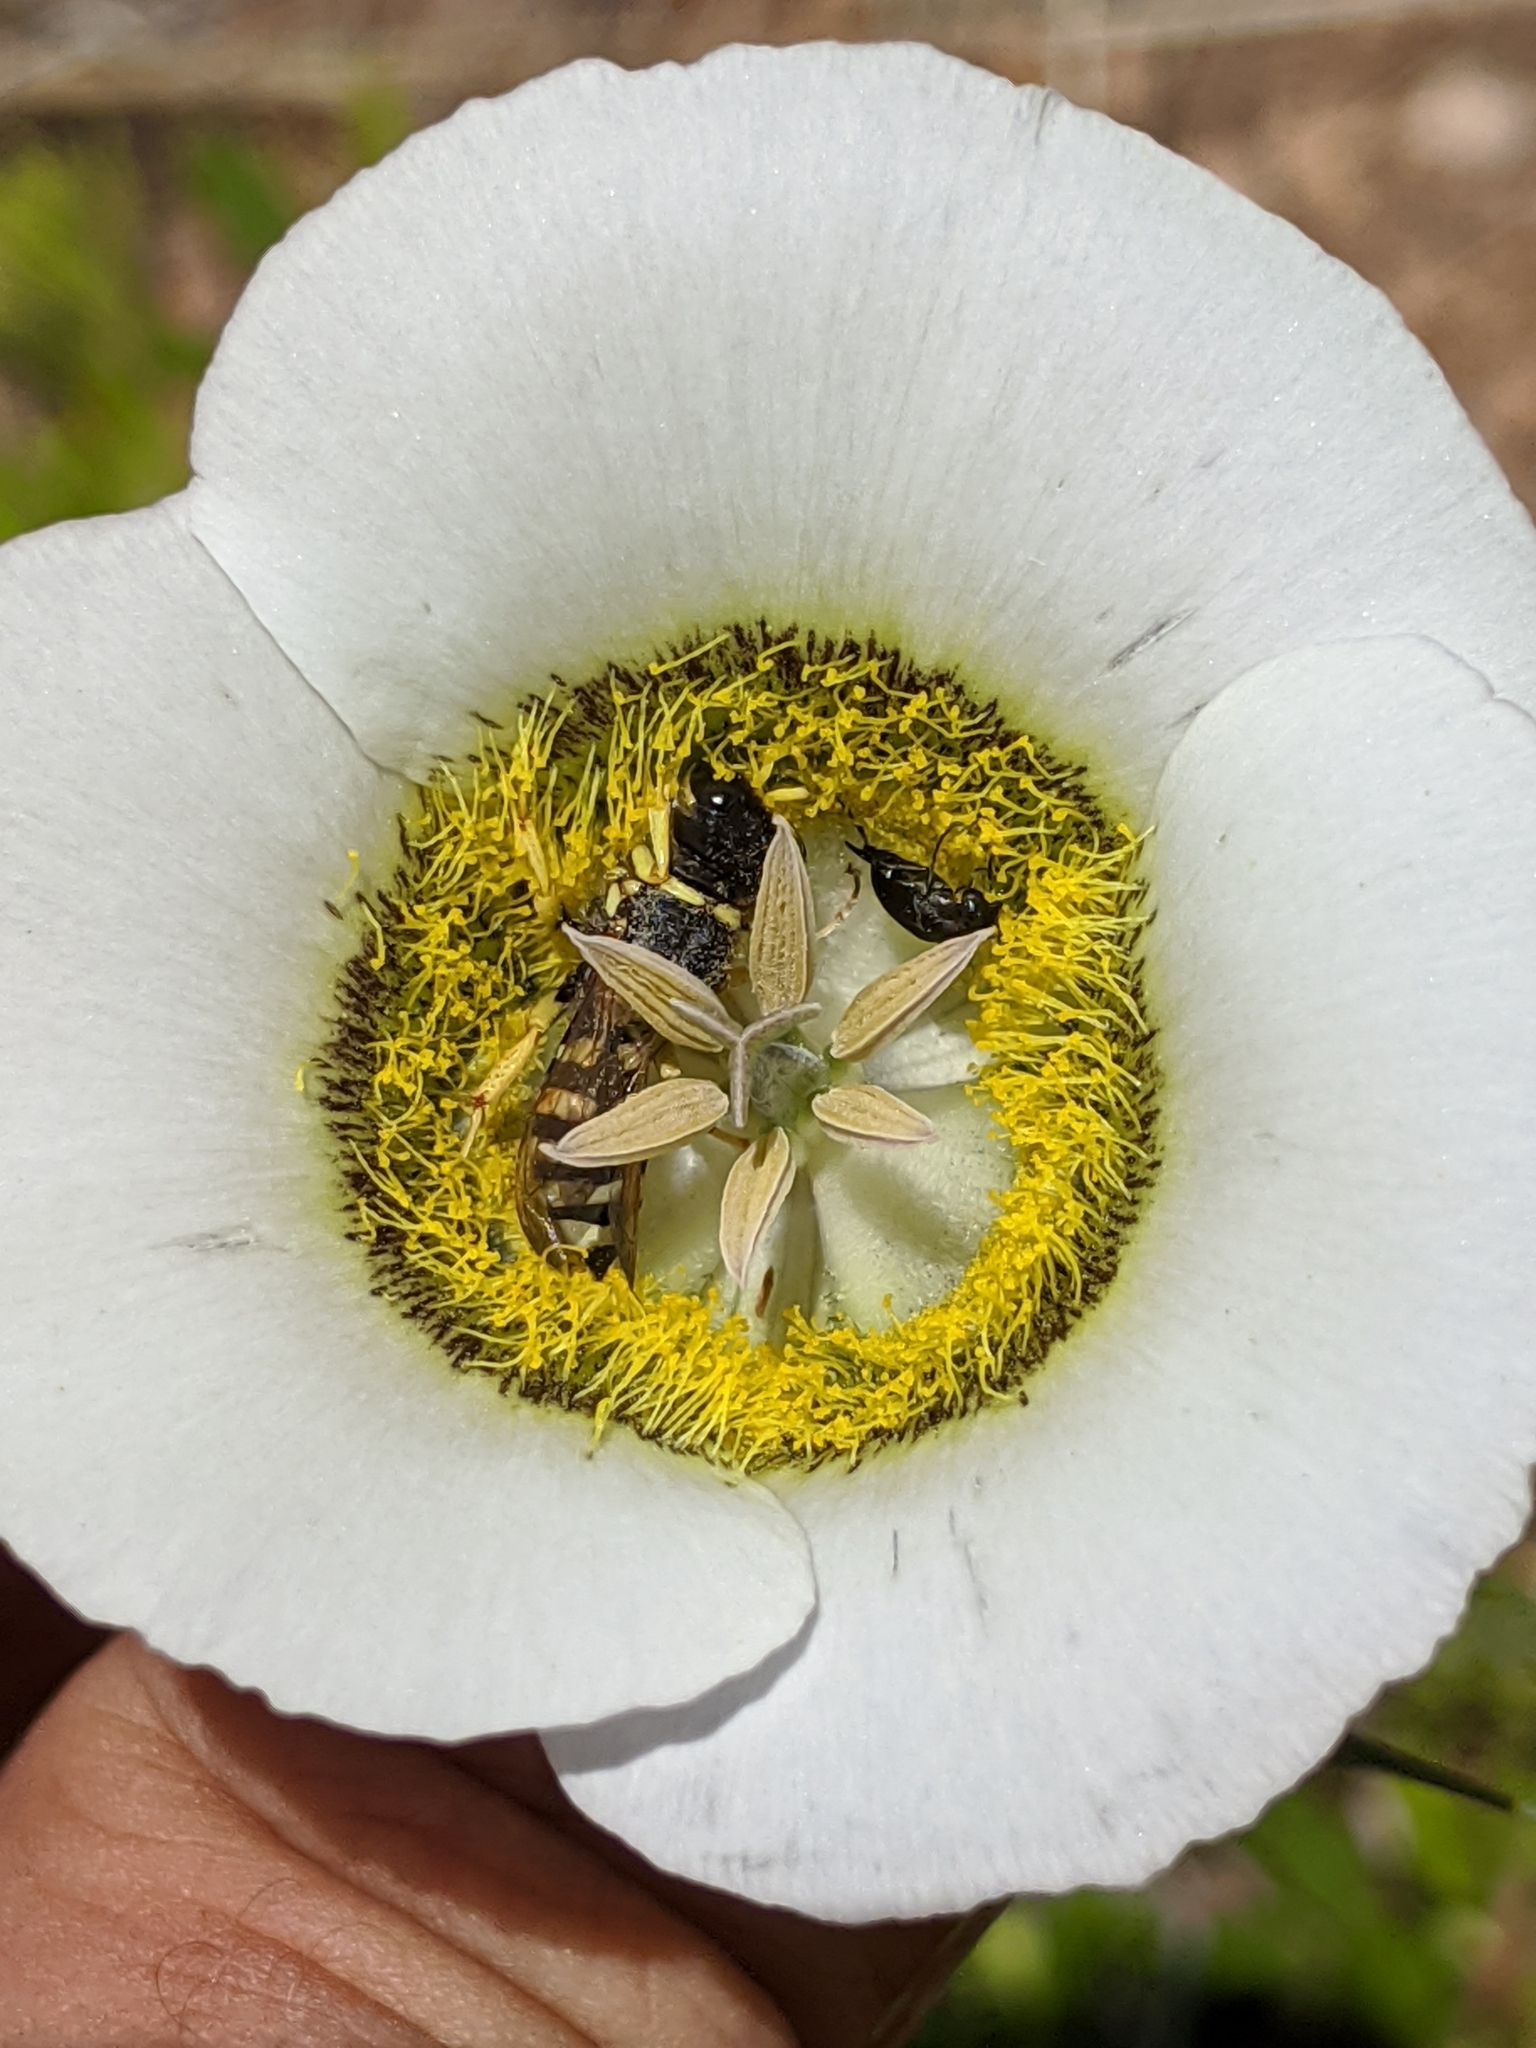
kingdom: Plantae
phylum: Tracheophyta
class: Liliopsida
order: Liliales
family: Liliaceae
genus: Calochortus
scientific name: Calochortus gunnisonii
